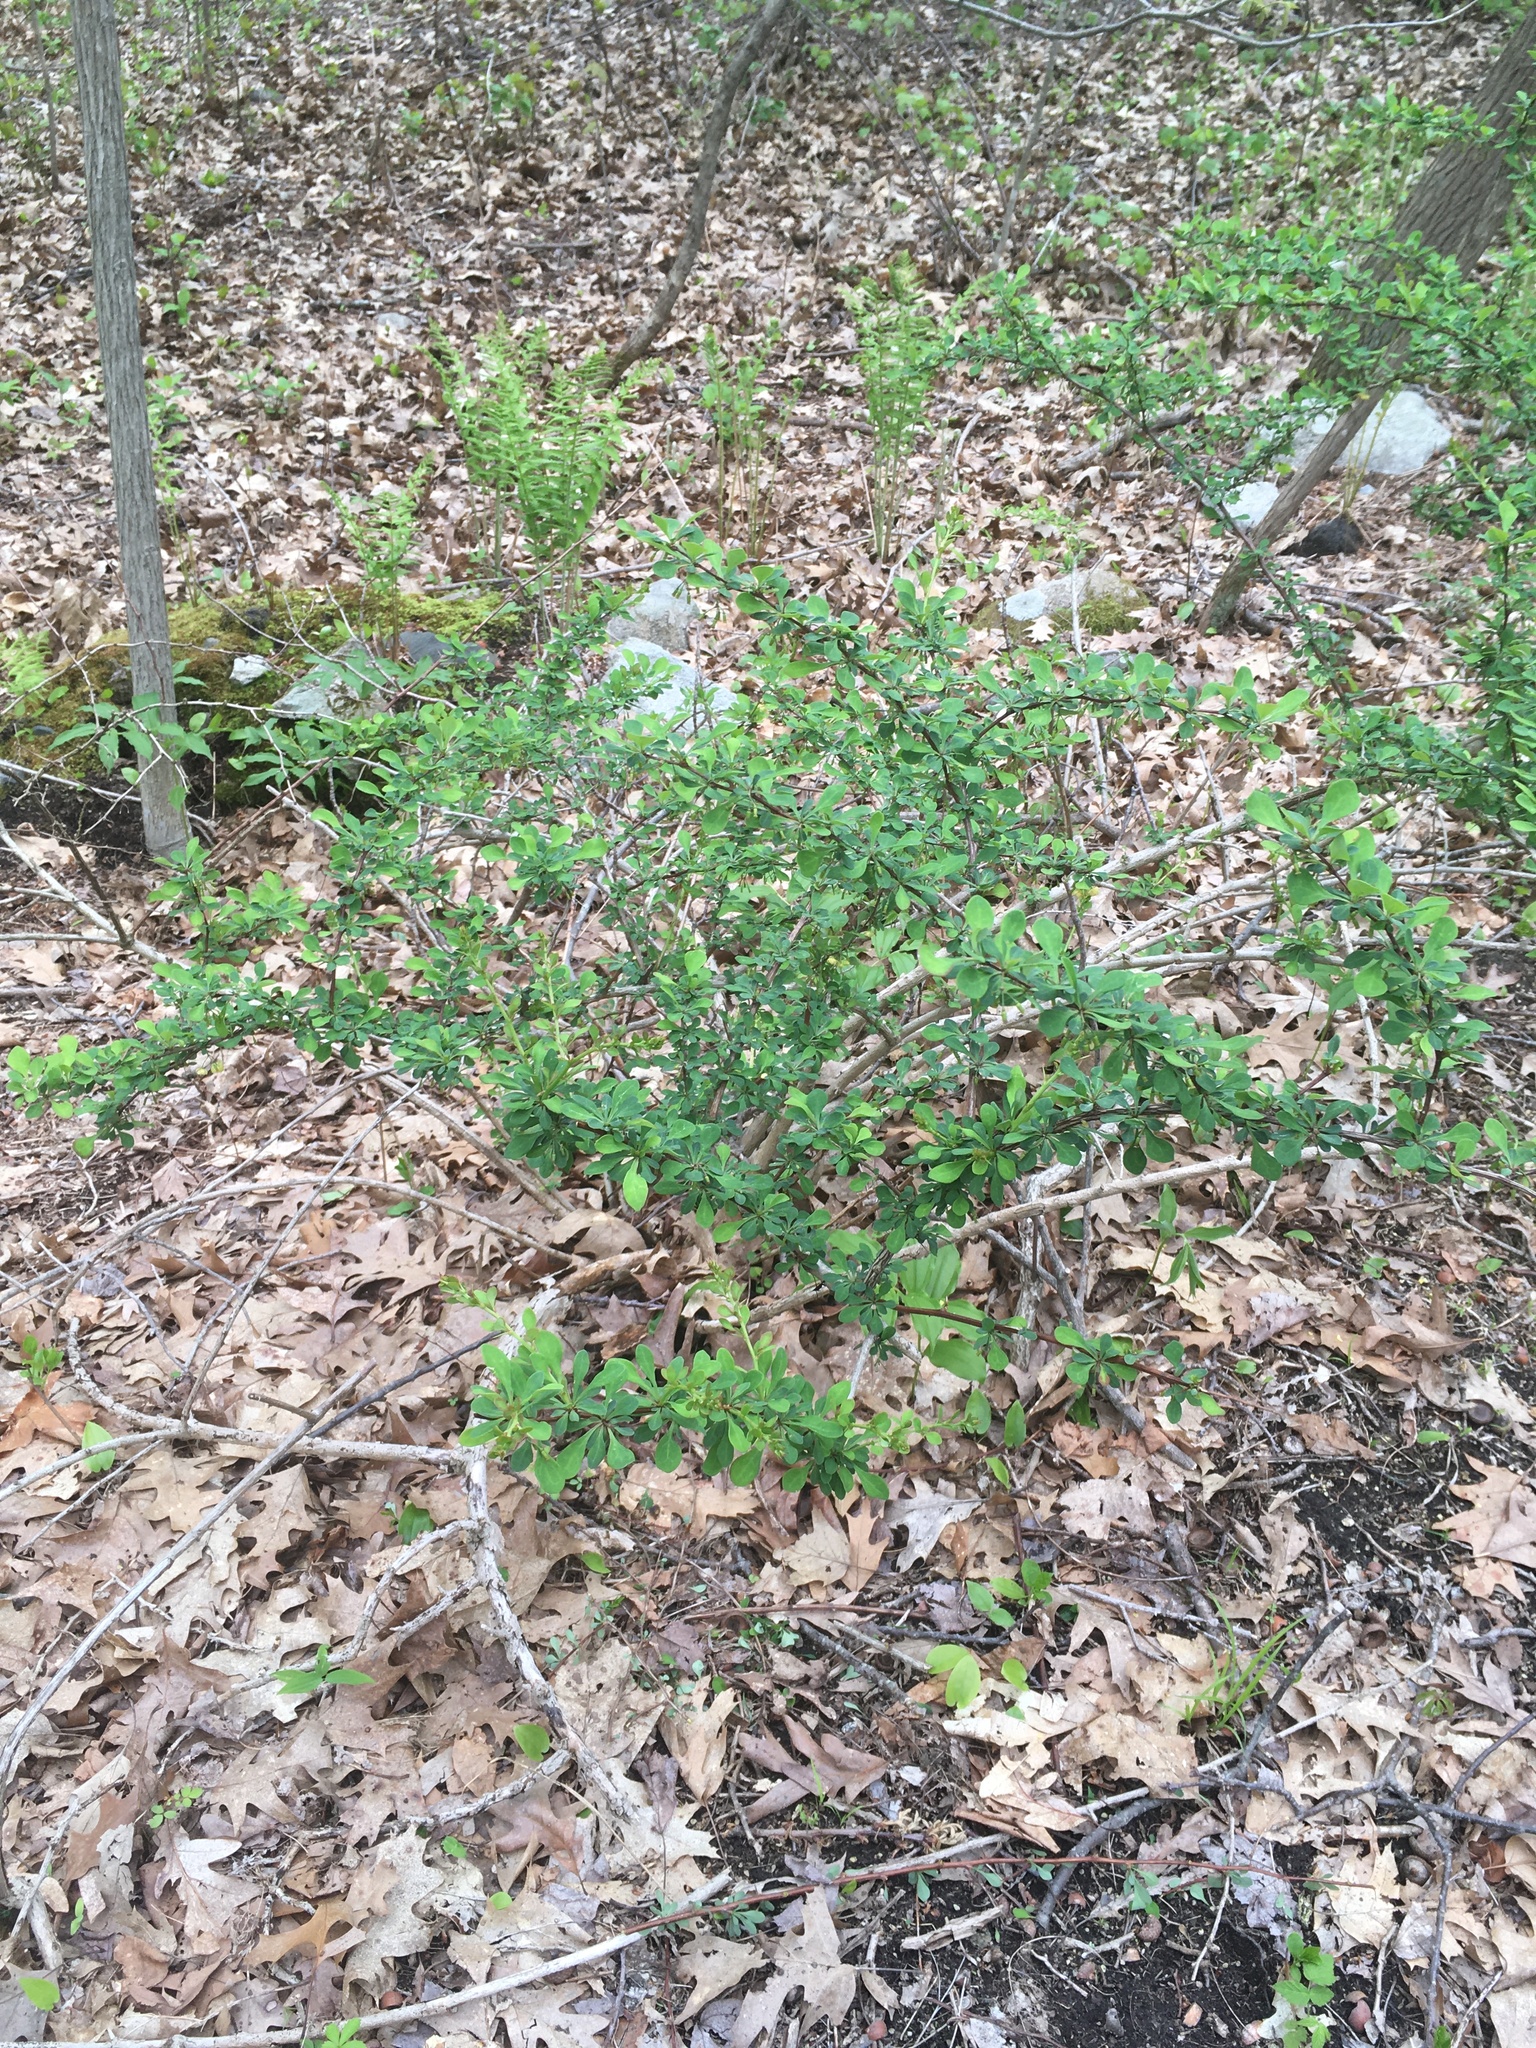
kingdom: Plantae
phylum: Tracheophyta
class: Magnoliopsida
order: Ranunculales
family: Berberidaceae
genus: Berberis
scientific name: Berberis thunbergii
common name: Japanese barberry
